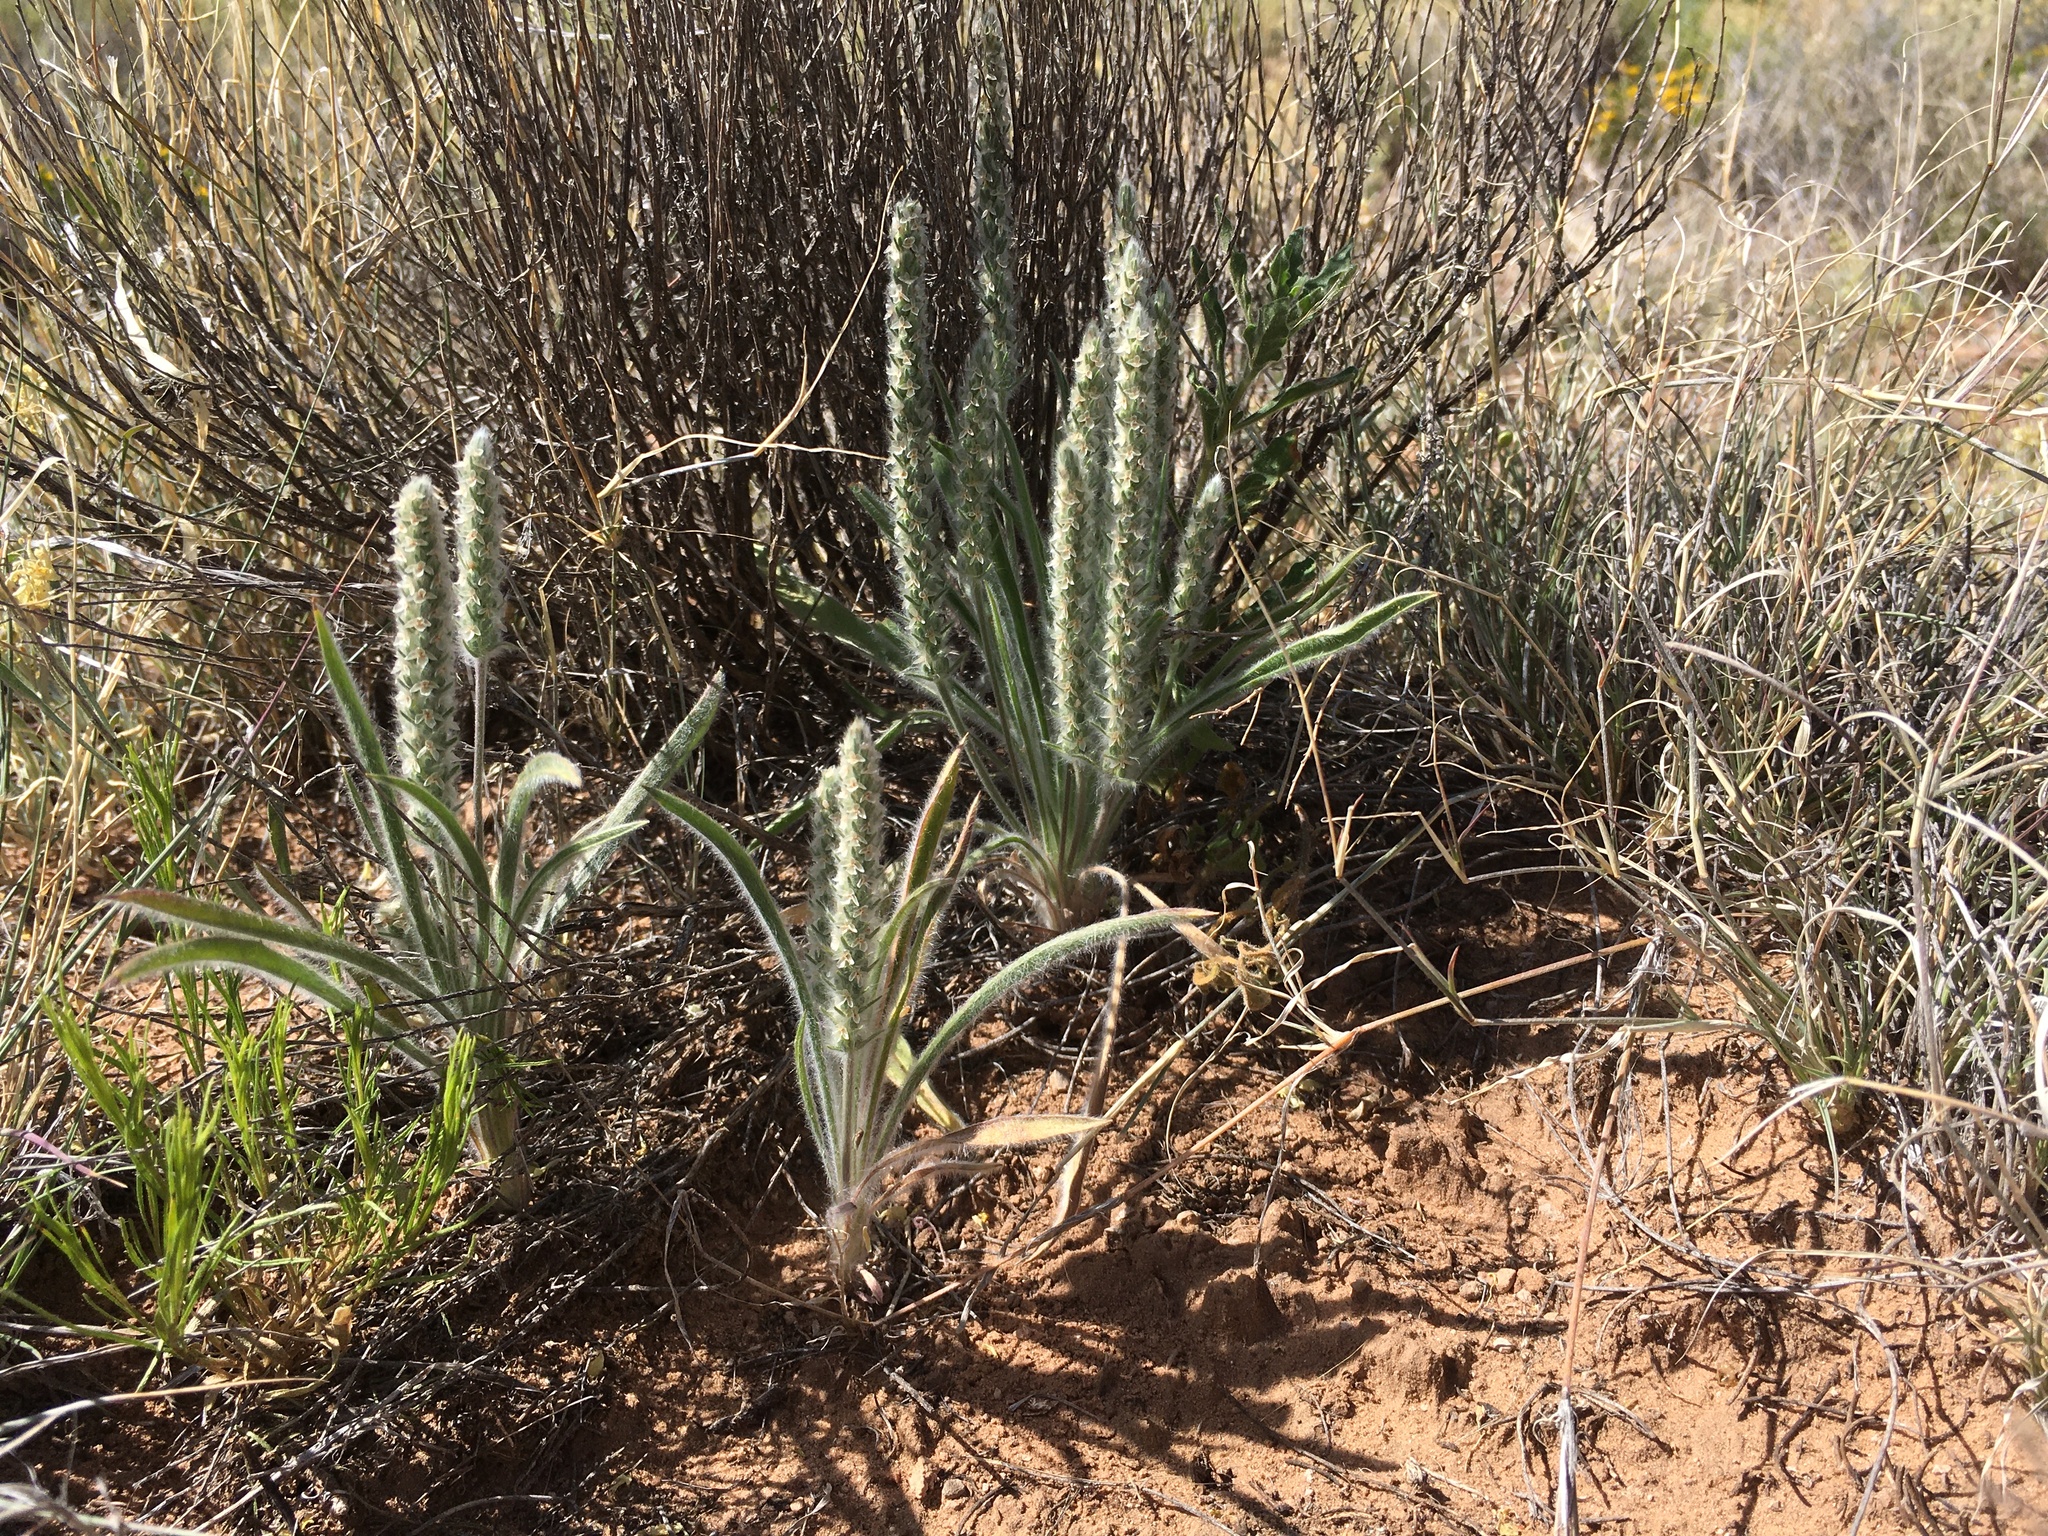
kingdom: Plantae
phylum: Tracheophyta
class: Magnoliopsida
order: Lamiales
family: Plantaginaceae
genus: Plantago
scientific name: Plantago patagonica
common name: Patagonia indian-wheat
